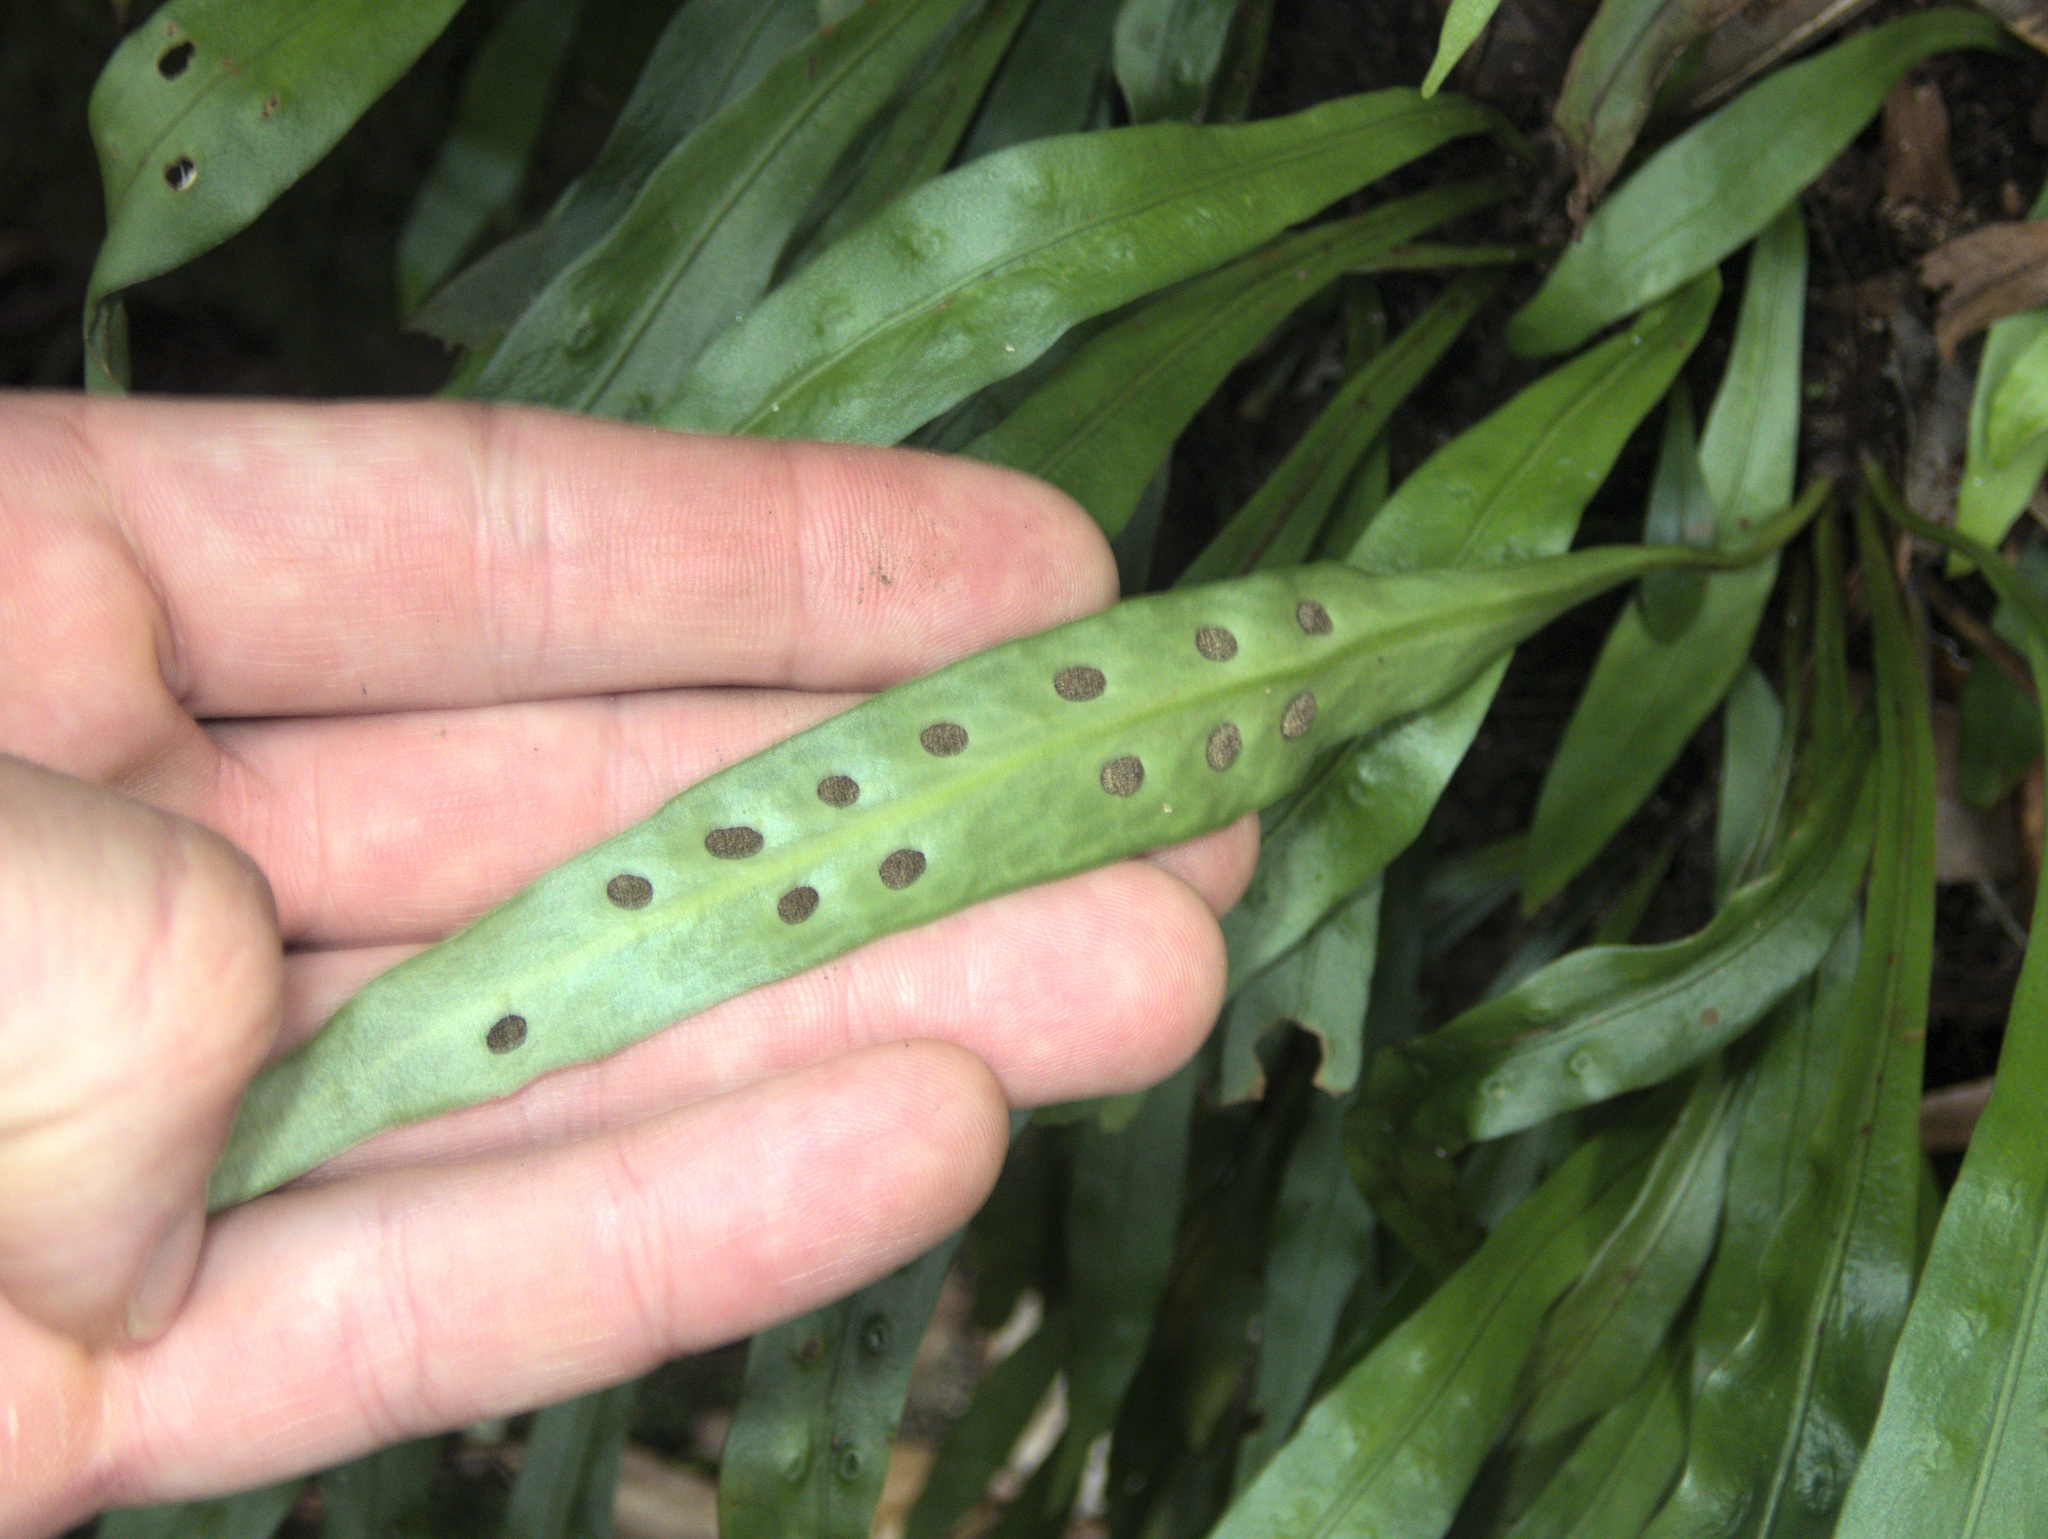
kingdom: Plantae
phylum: Tracheophyta
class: Polypodiopsida
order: Polypodiales
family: Polypodiaceae
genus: Loxogramme
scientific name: Loxogramme dictyopteris
